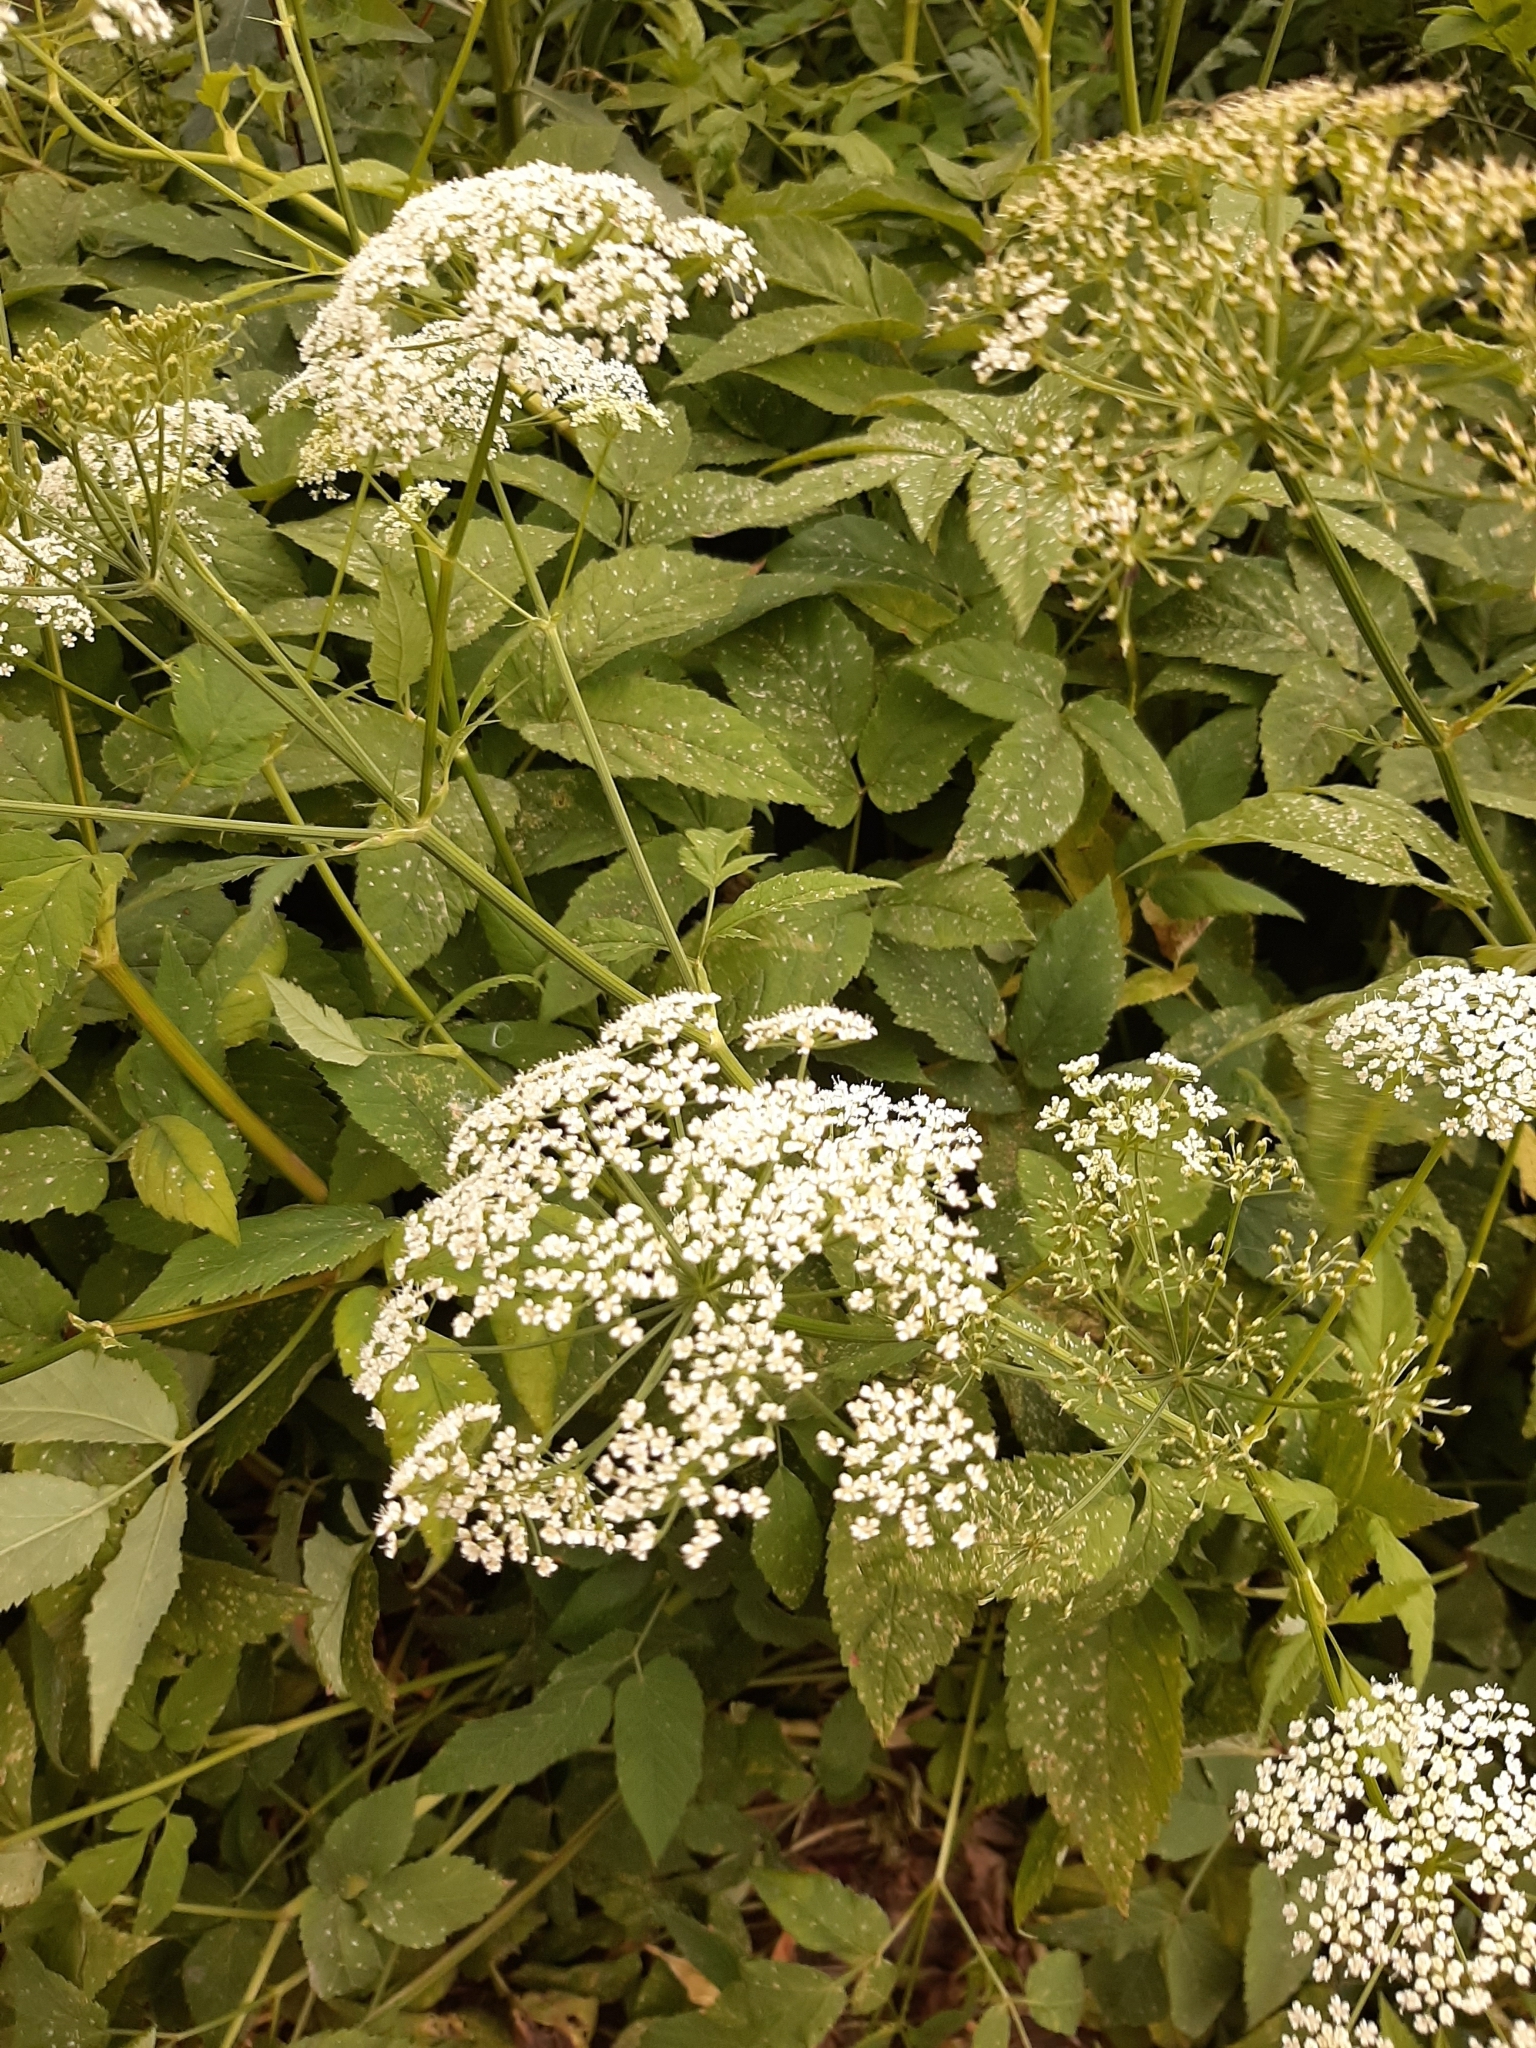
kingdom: Plantae
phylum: Tracheophyta
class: Magnoliopsida
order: Apiales
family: Apiaceae
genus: Aegopodium
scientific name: Aegopodium podagraria
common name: Ground-elder
